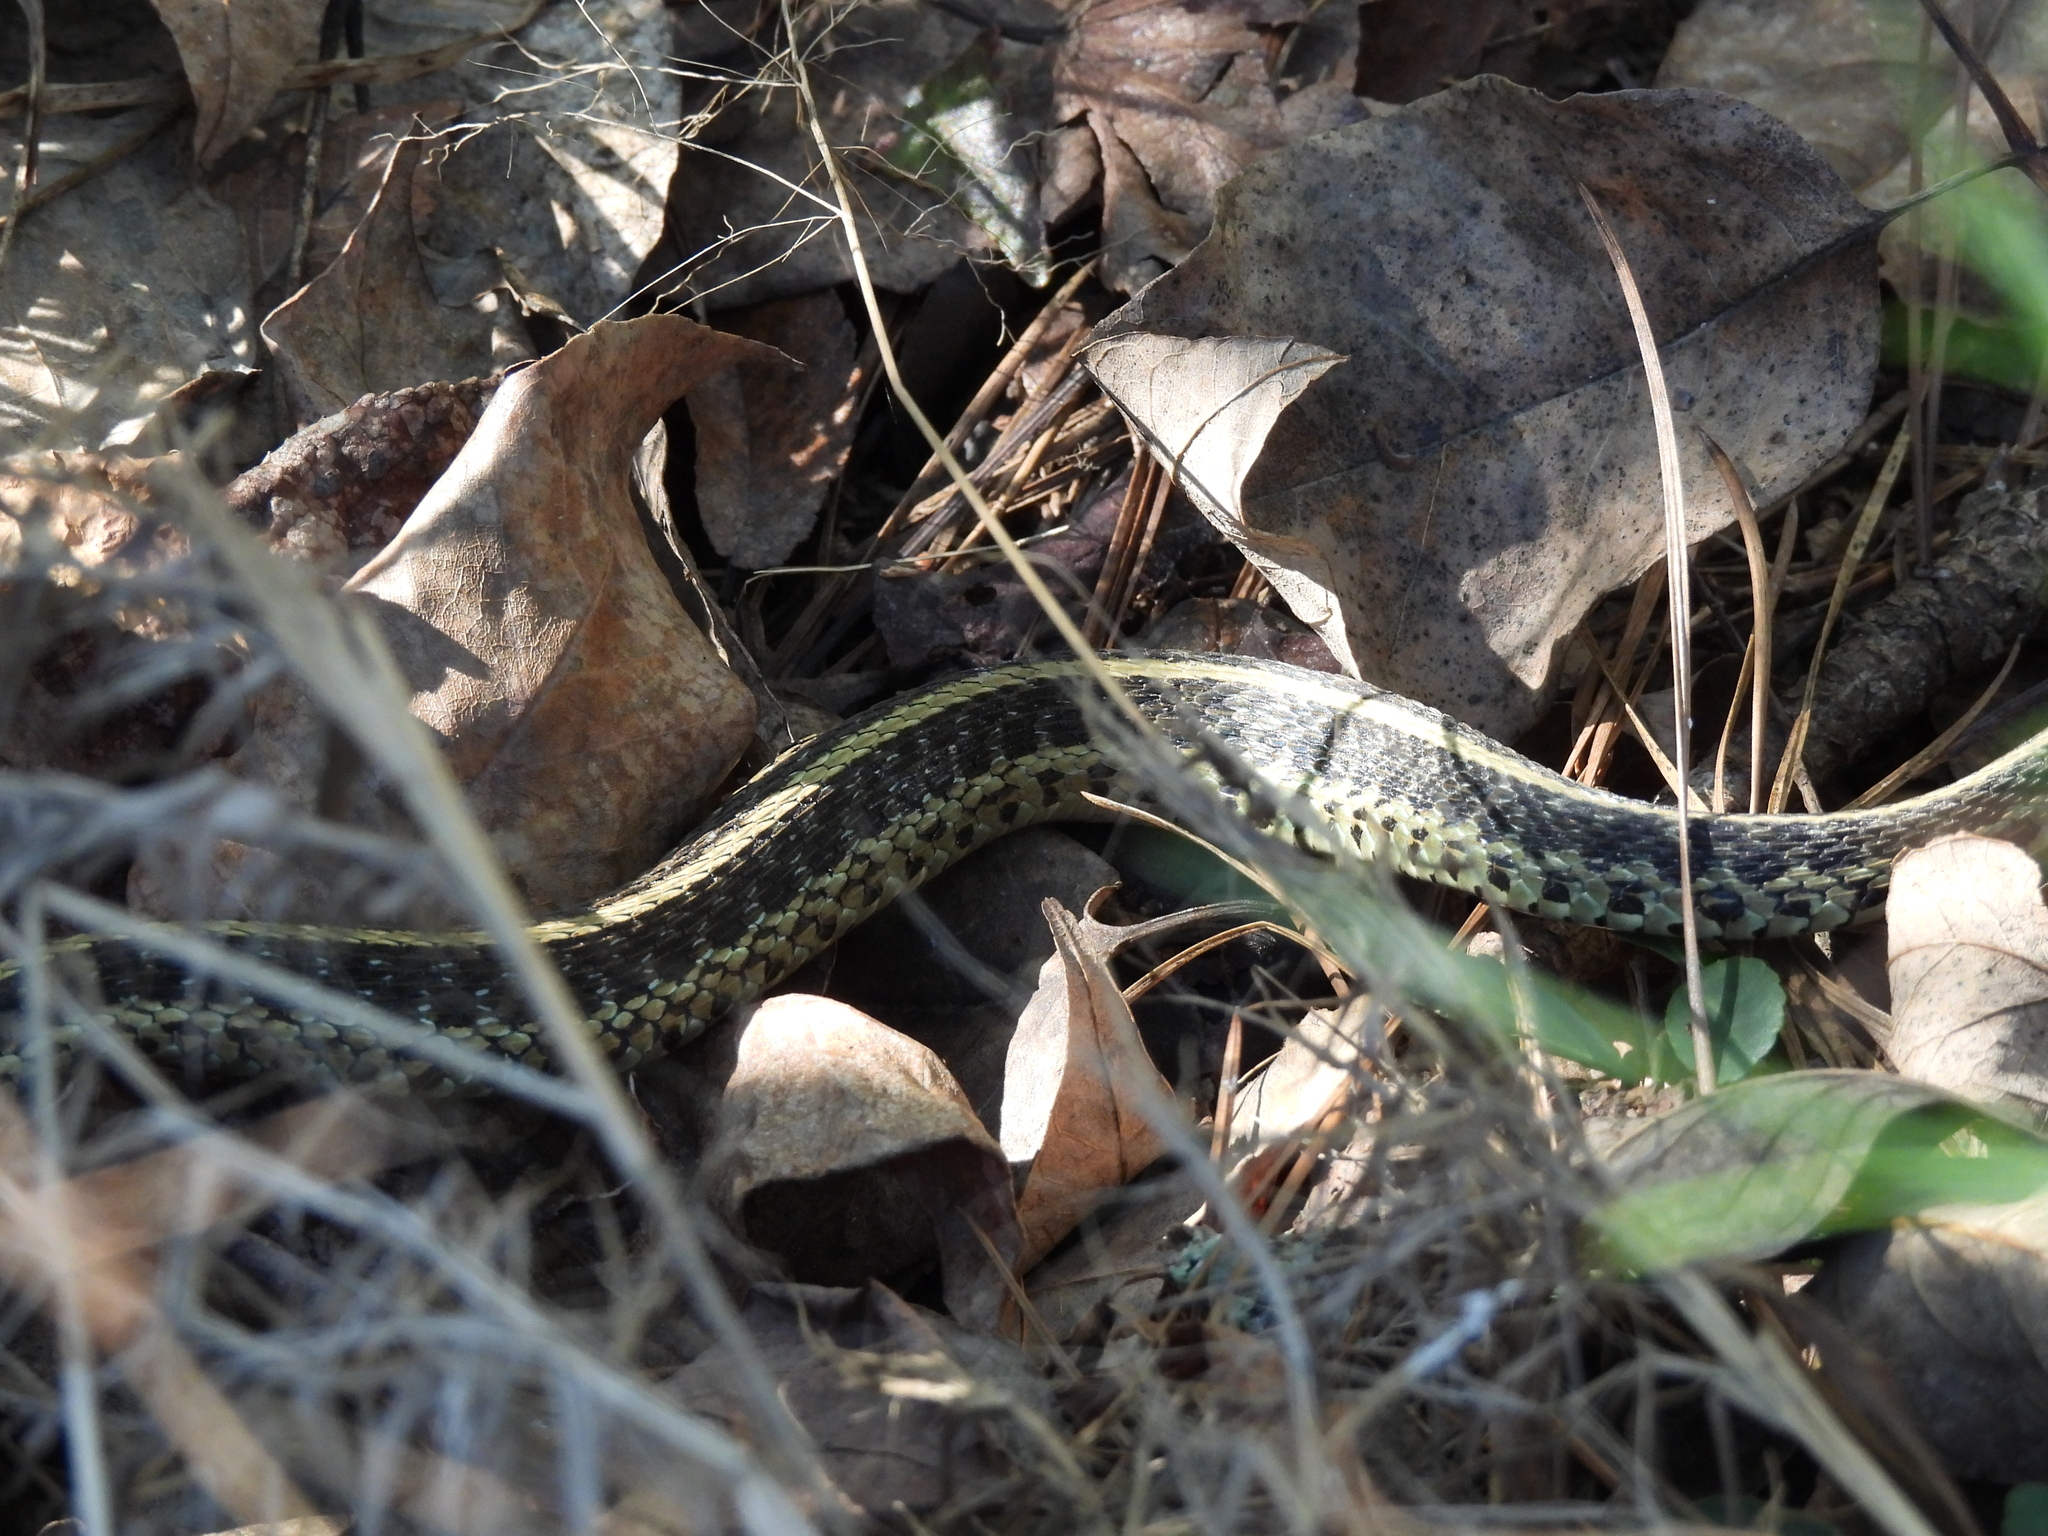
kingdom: Animalia
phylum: Chordata
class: Squamata
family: Colubridae
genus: Thamnophis
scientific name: Thamnophis sirtalis
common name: Common garter snake
